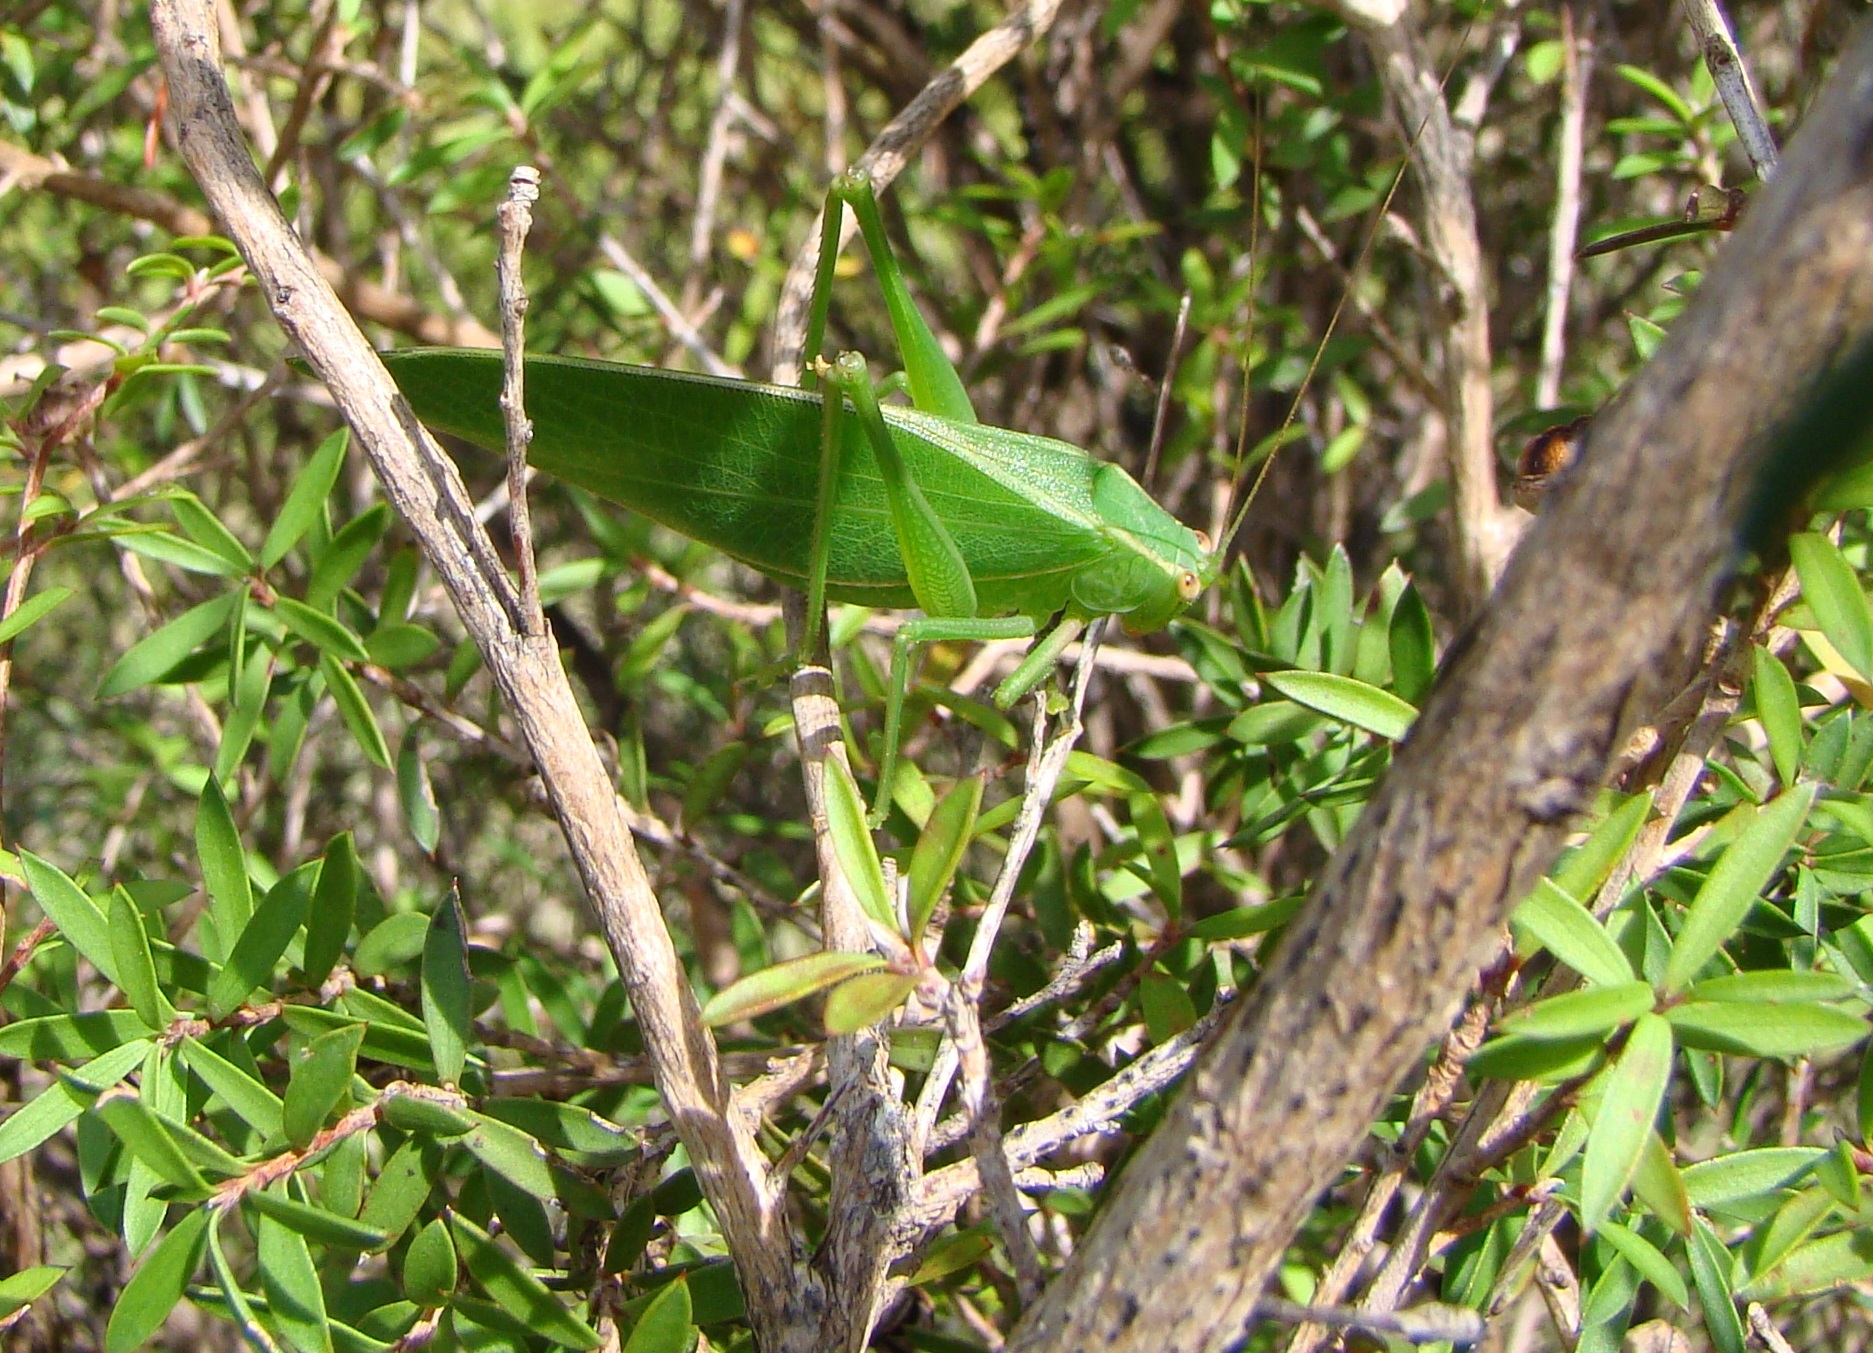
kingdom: Animalia
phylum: Arthropoda
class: Insecta
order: Orthoptera
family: Tettigoniidae
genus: Caedicia
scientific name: Caedicia simplex
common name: Common garden katydid
